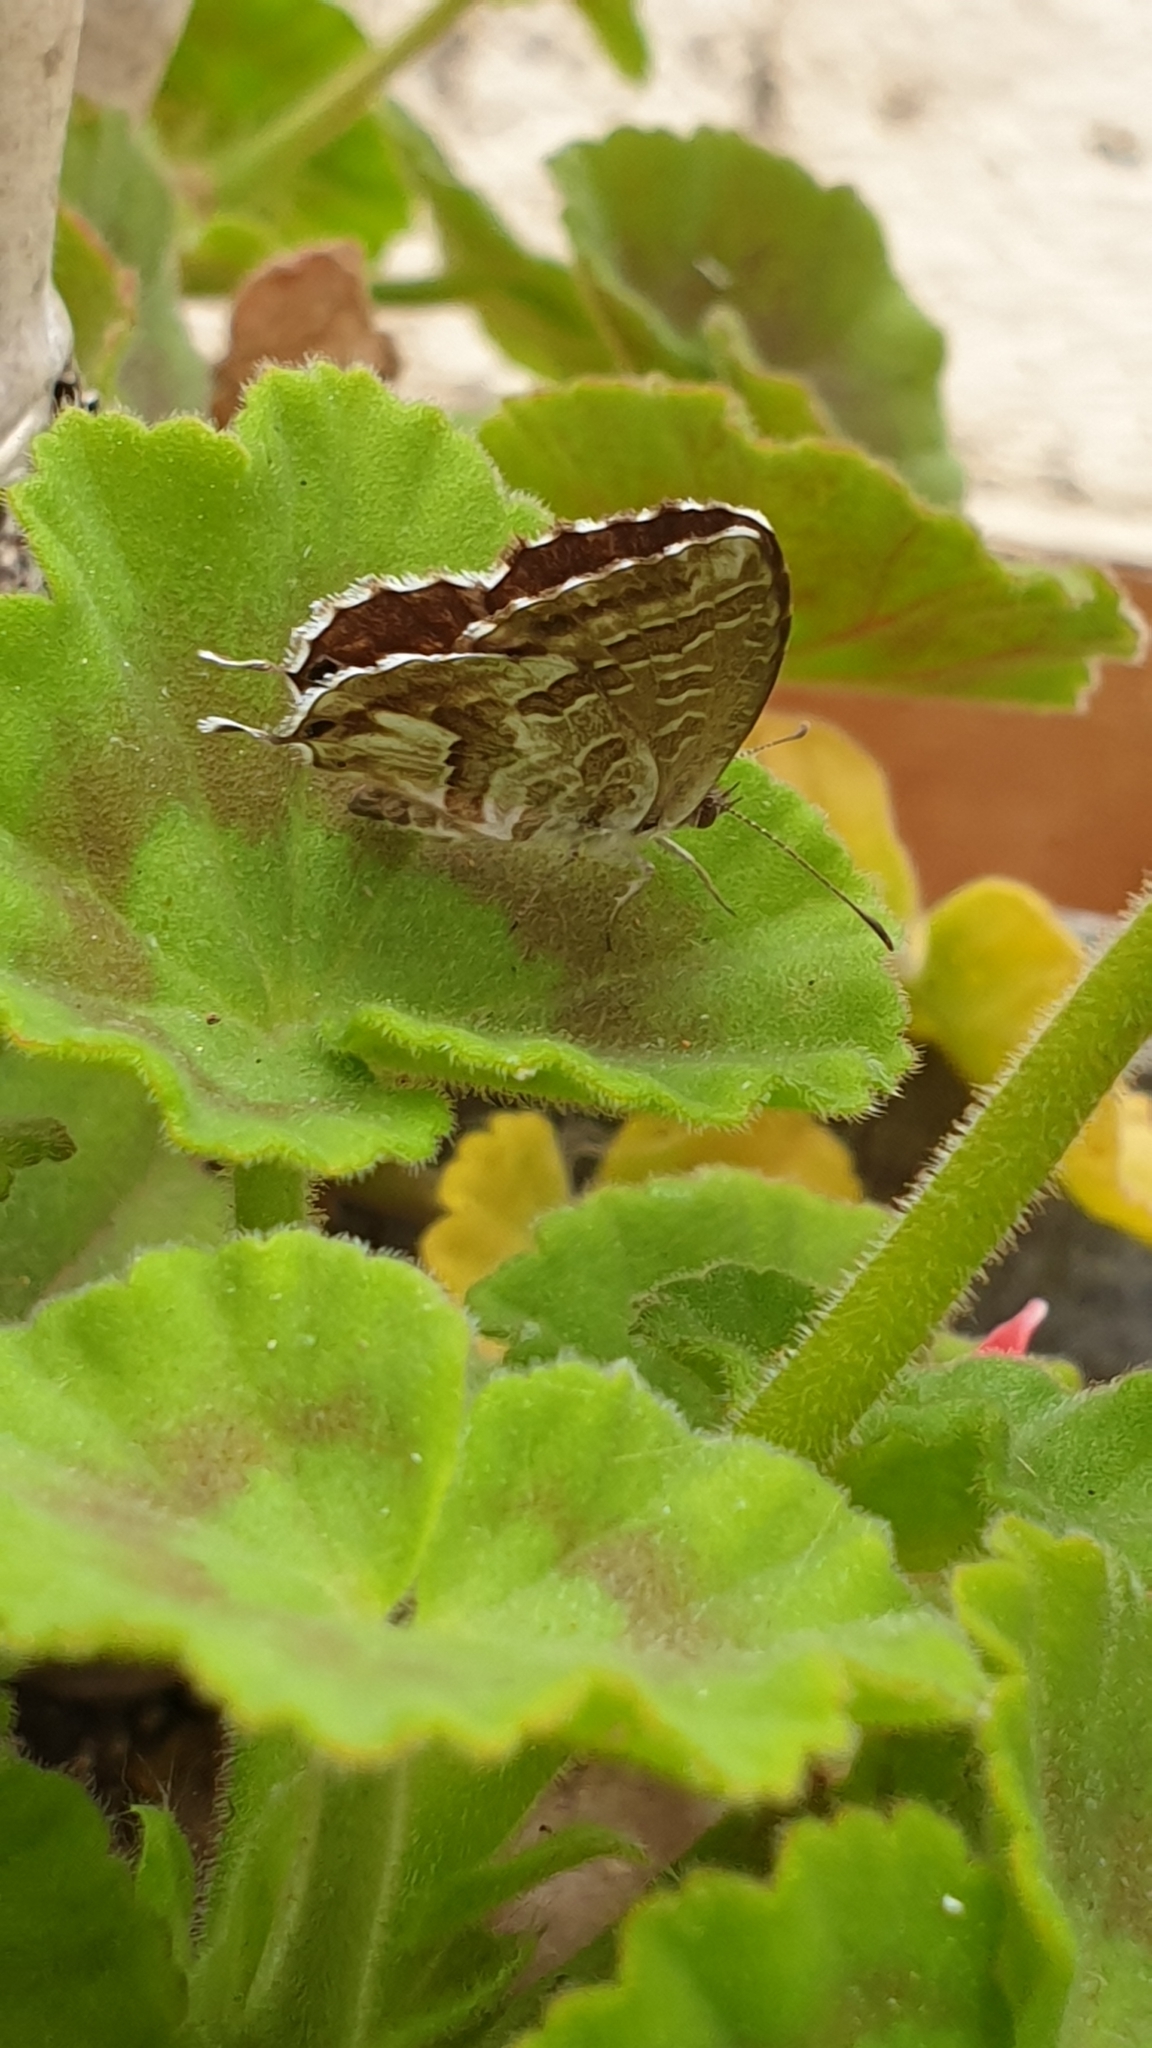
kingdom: Animalia
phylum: Arthropoda
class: Insecta
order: Lepidoptera
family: Lycaenidae
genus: Cacyreus
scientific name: Cacyreus marshalli
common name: Geranium bronze
